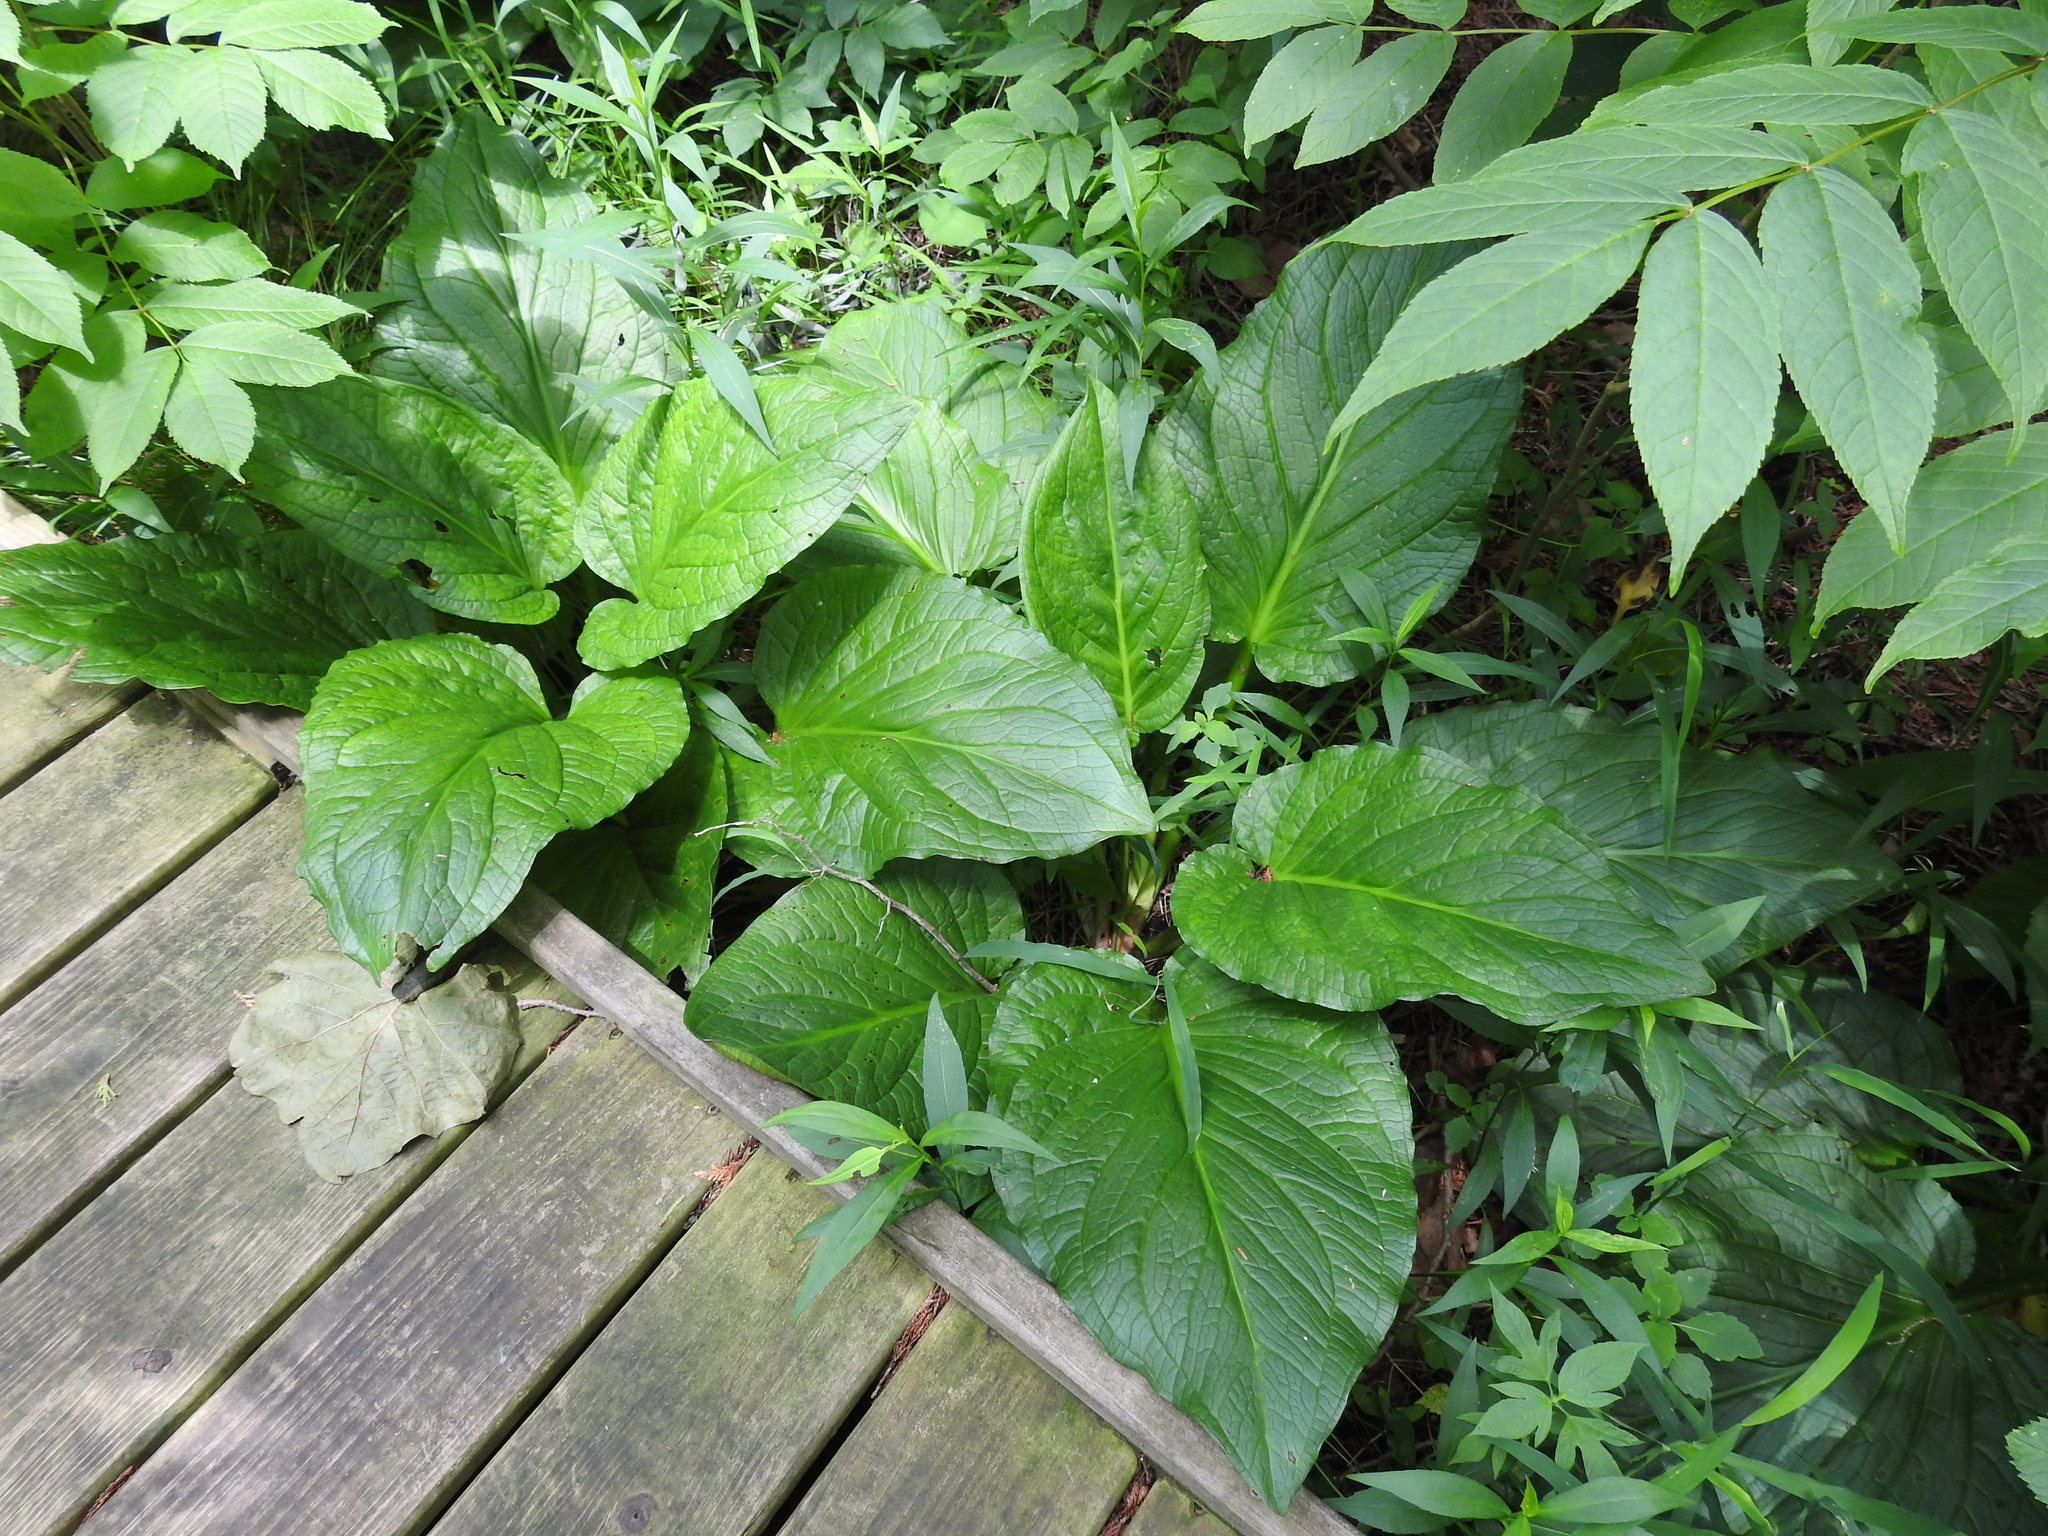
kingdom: Plantae
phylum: Tracheophyta
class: Liliopsida
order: Alismatales
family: Araceae
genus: Symplocarpus
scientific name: Symplocarpus foetidus
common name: Eastern skunk cabbage
